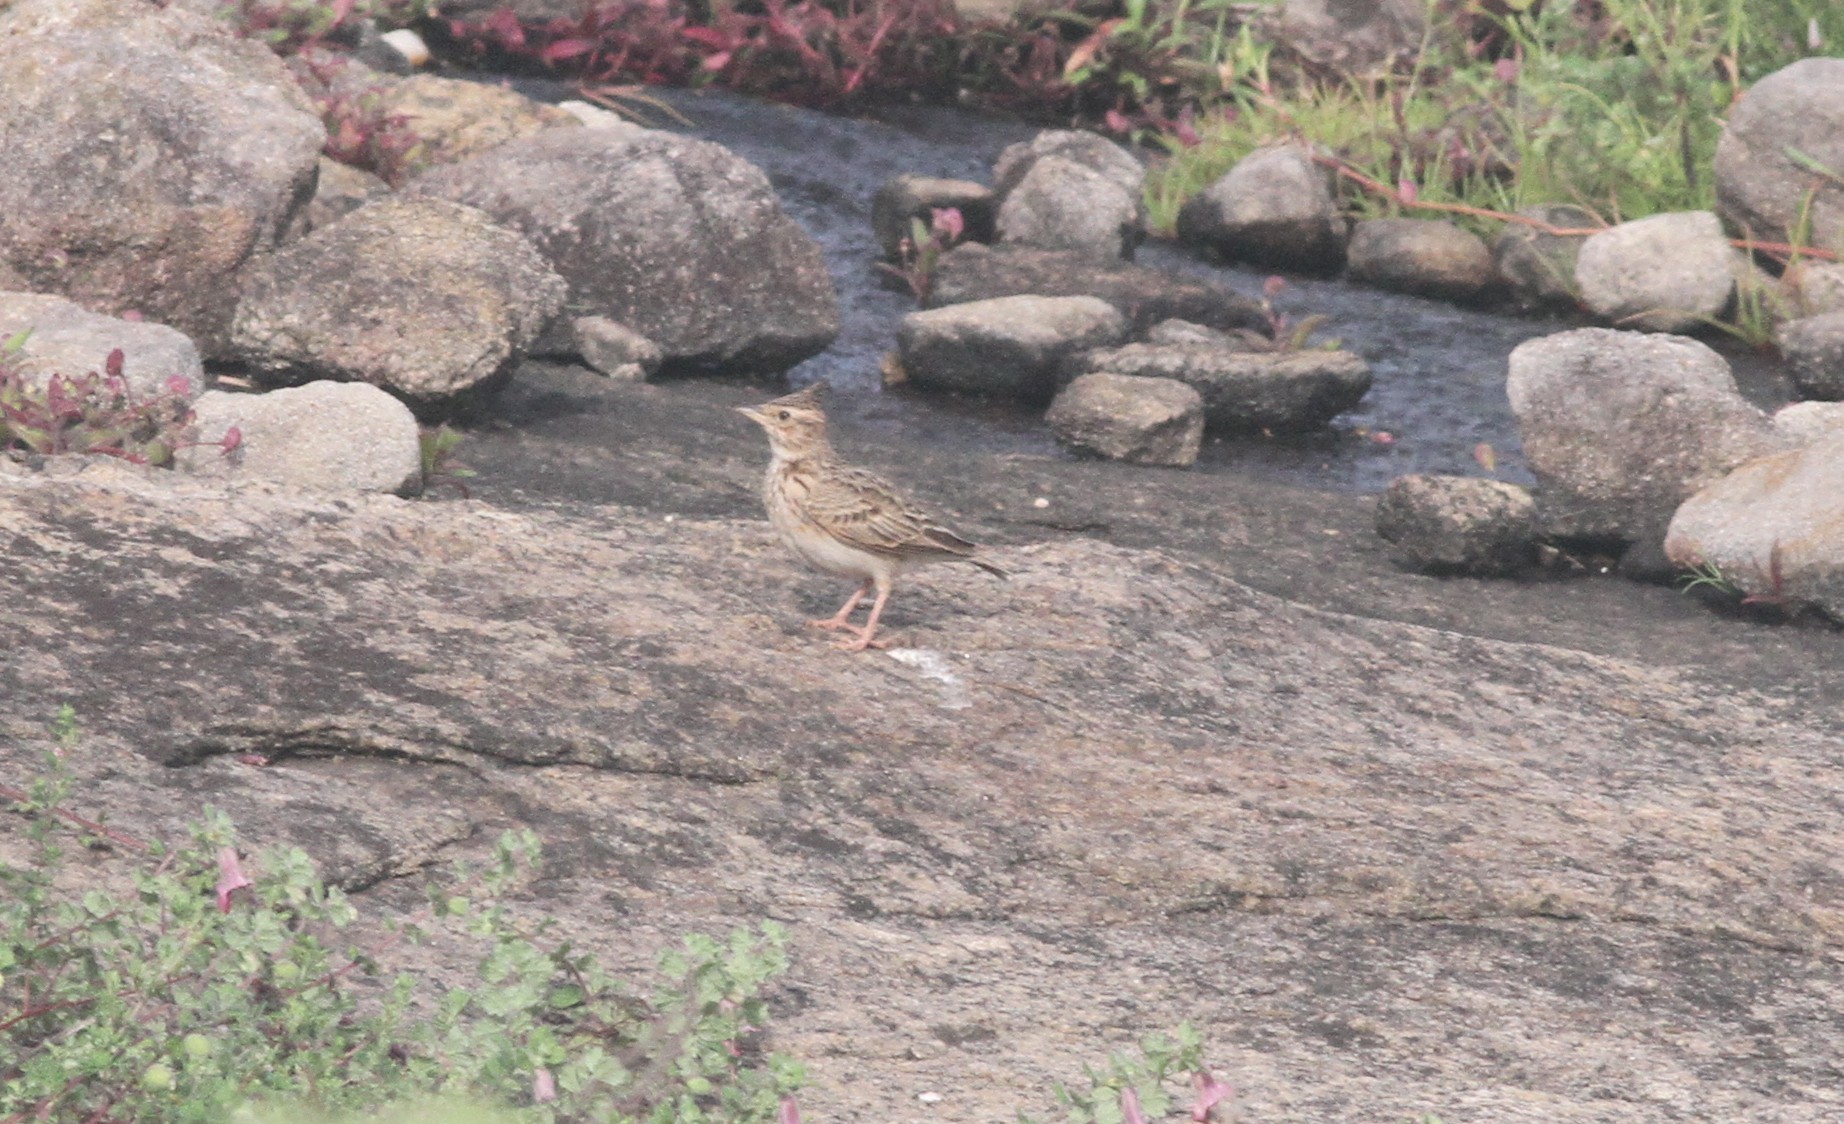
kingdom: Animalia
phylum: Chordata
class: Aves
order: Passeriformes
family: Alaudidae
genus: Galerida
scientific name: Galerida malabarica
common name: Malabar lark
